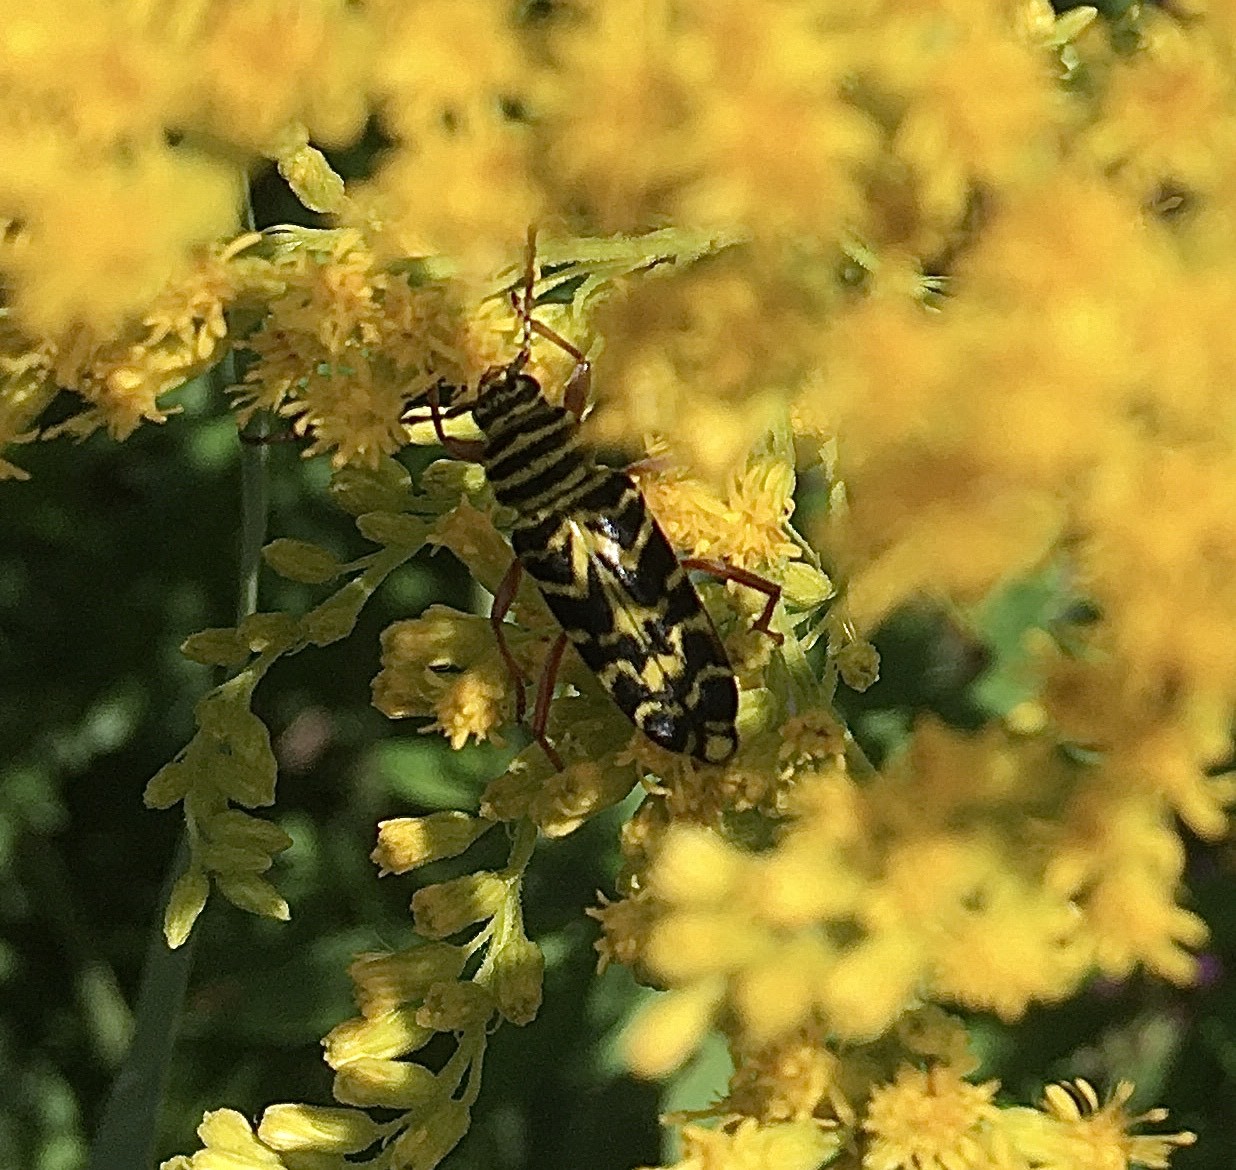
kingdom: Animalia
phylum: Arthropoda
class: Insecta
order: Coleoptera
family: Cerambycidae
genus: Megacyllene
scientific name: Megacyllene robiniae
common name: Locust borer
